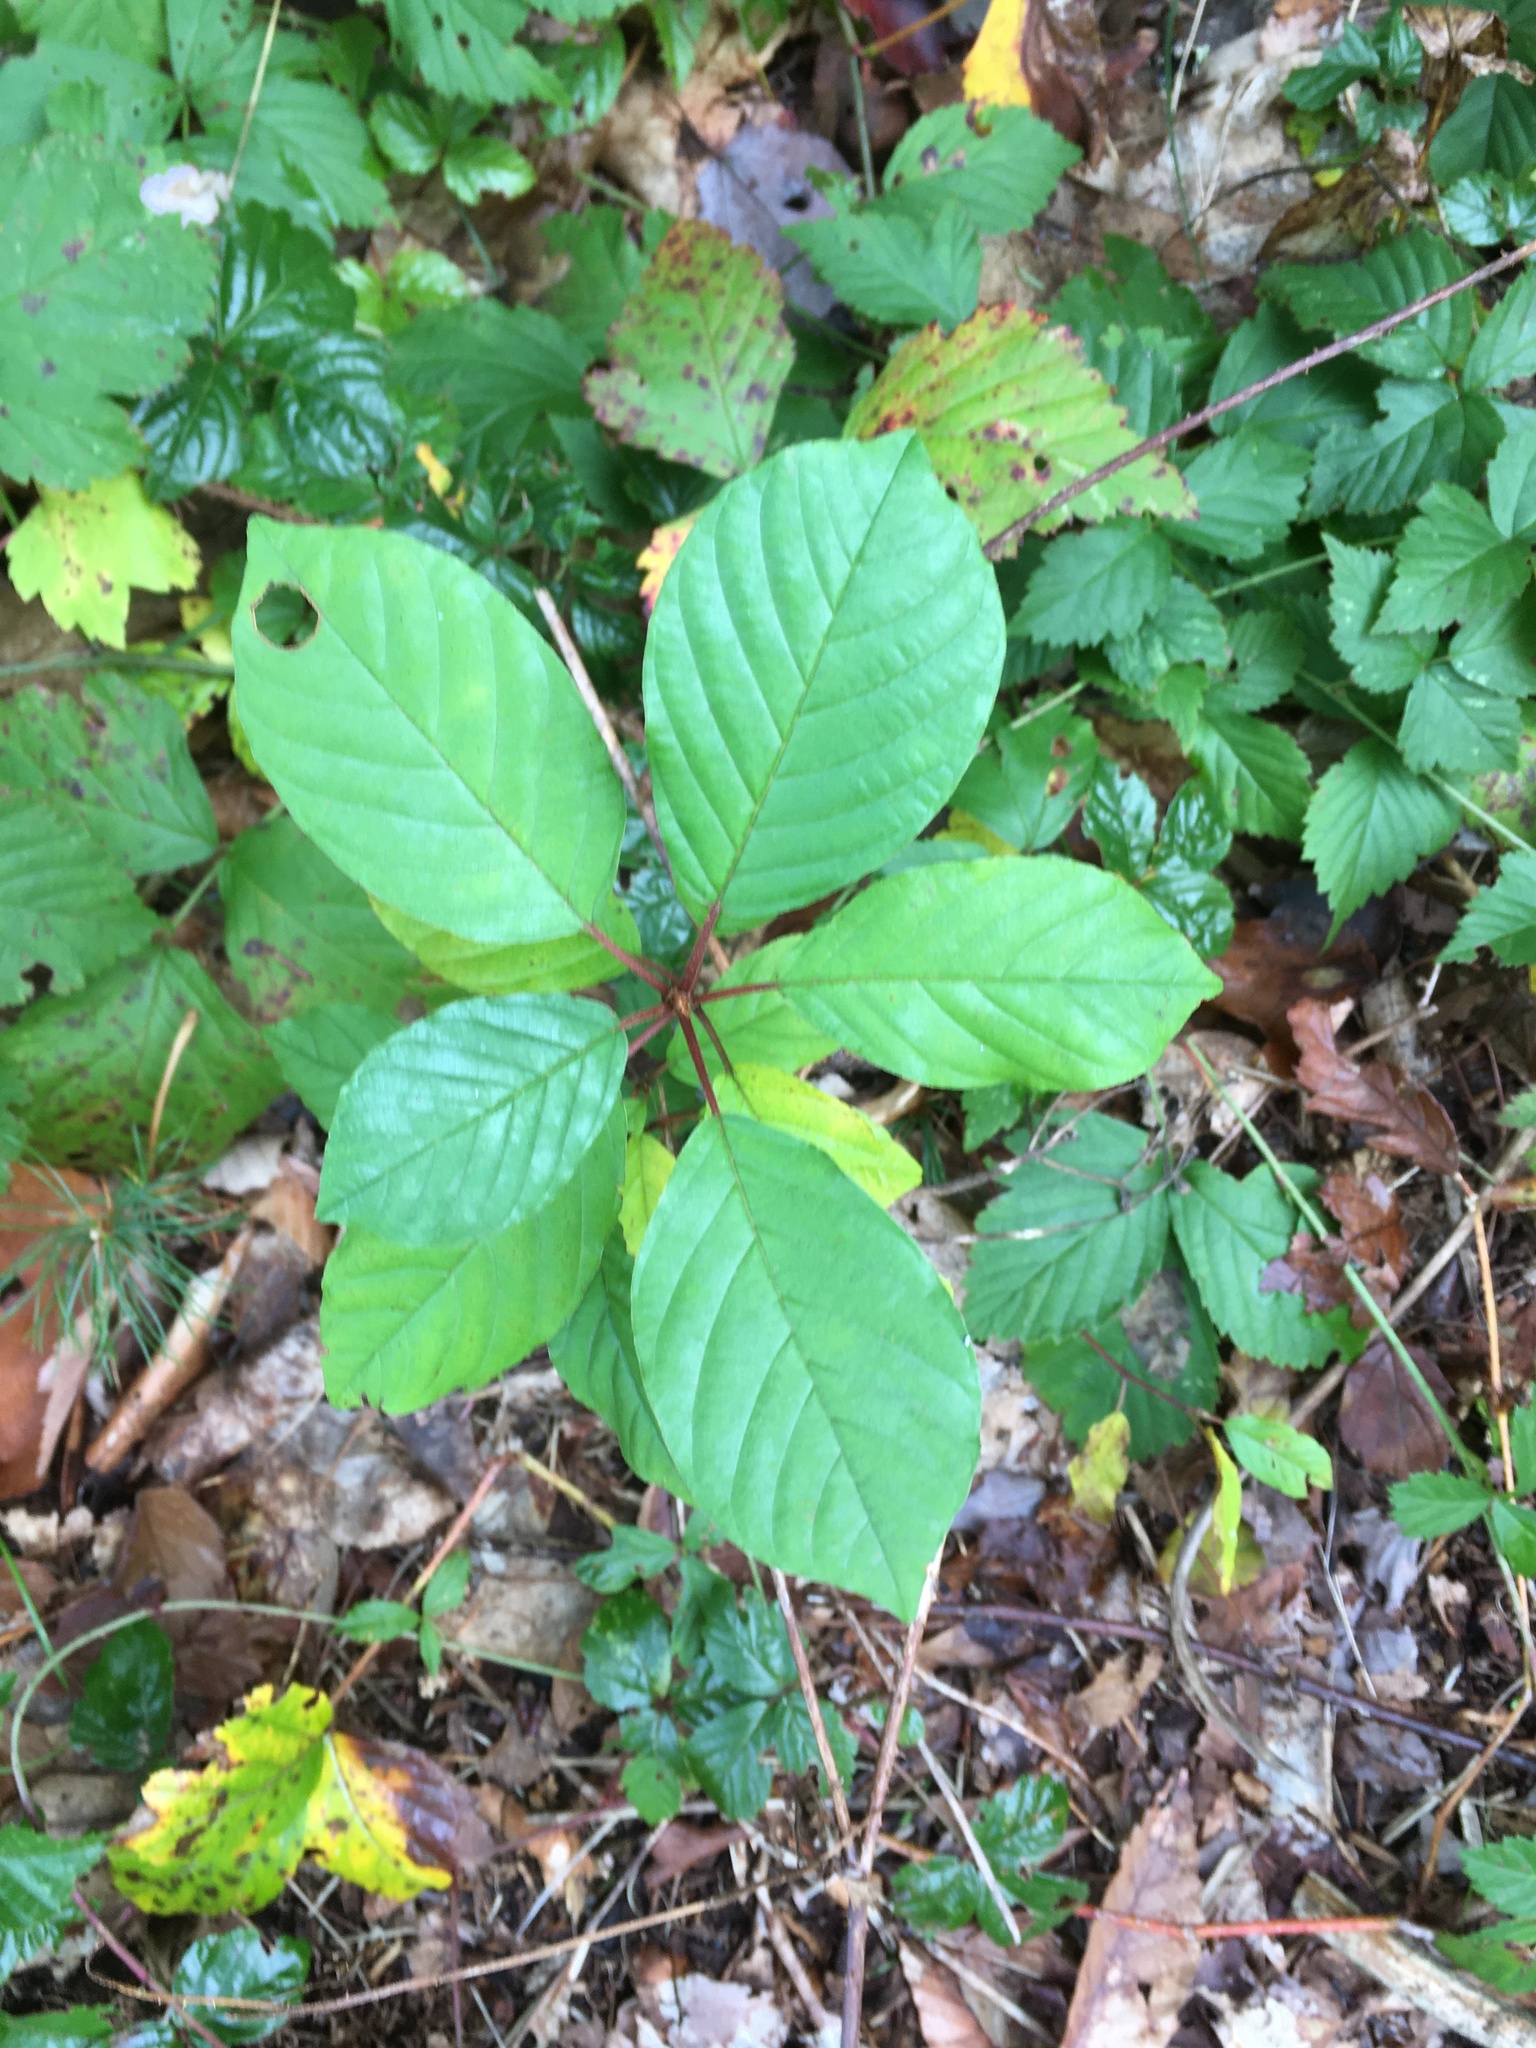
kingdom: Plantae
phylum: Tracheophyta
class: Magnoliopsida
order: Rosales
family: Rhamnaceae
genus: Frangula
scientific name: Frangula alnus
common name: Alder buckthorn
